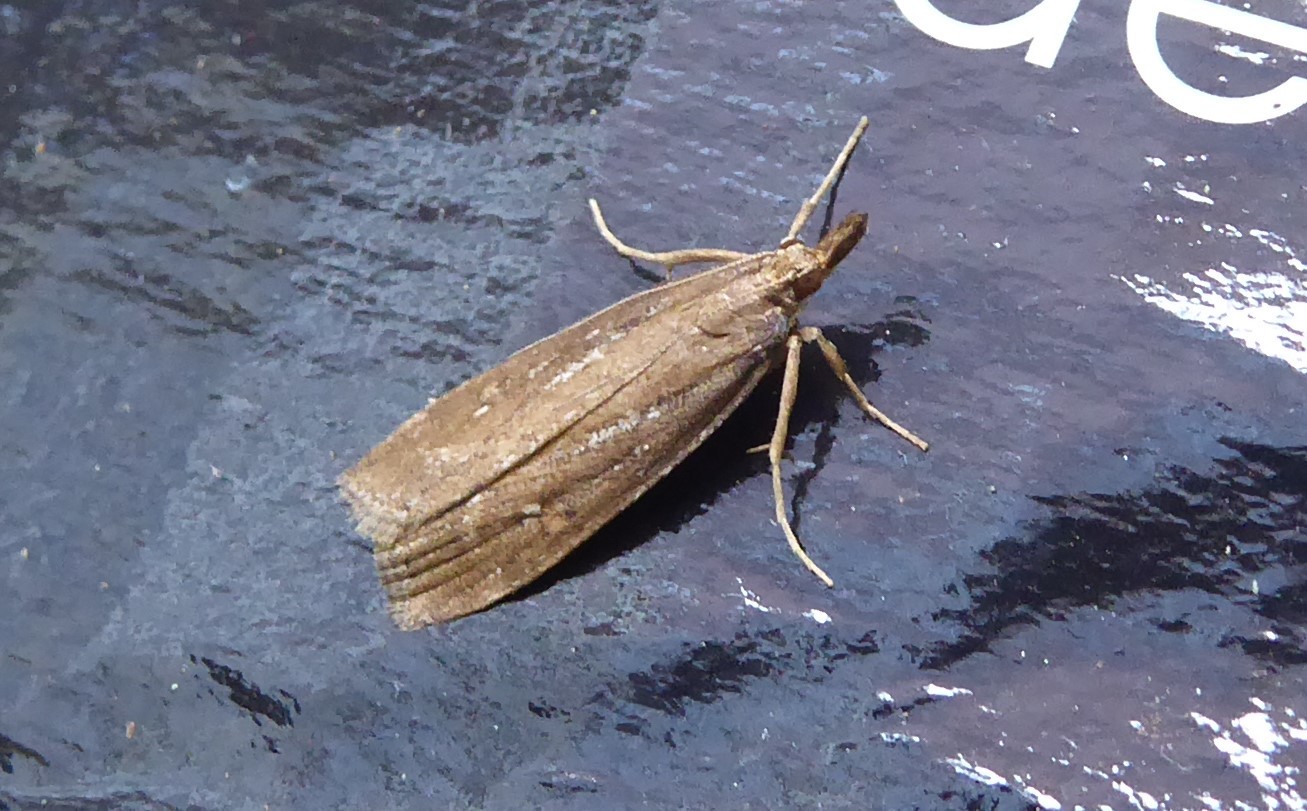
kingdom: Animalia
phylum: Arthropoda
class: Insecta
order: Lepidoptera
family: Crambidae
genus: Eudonia
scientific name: Eudonia octophora
